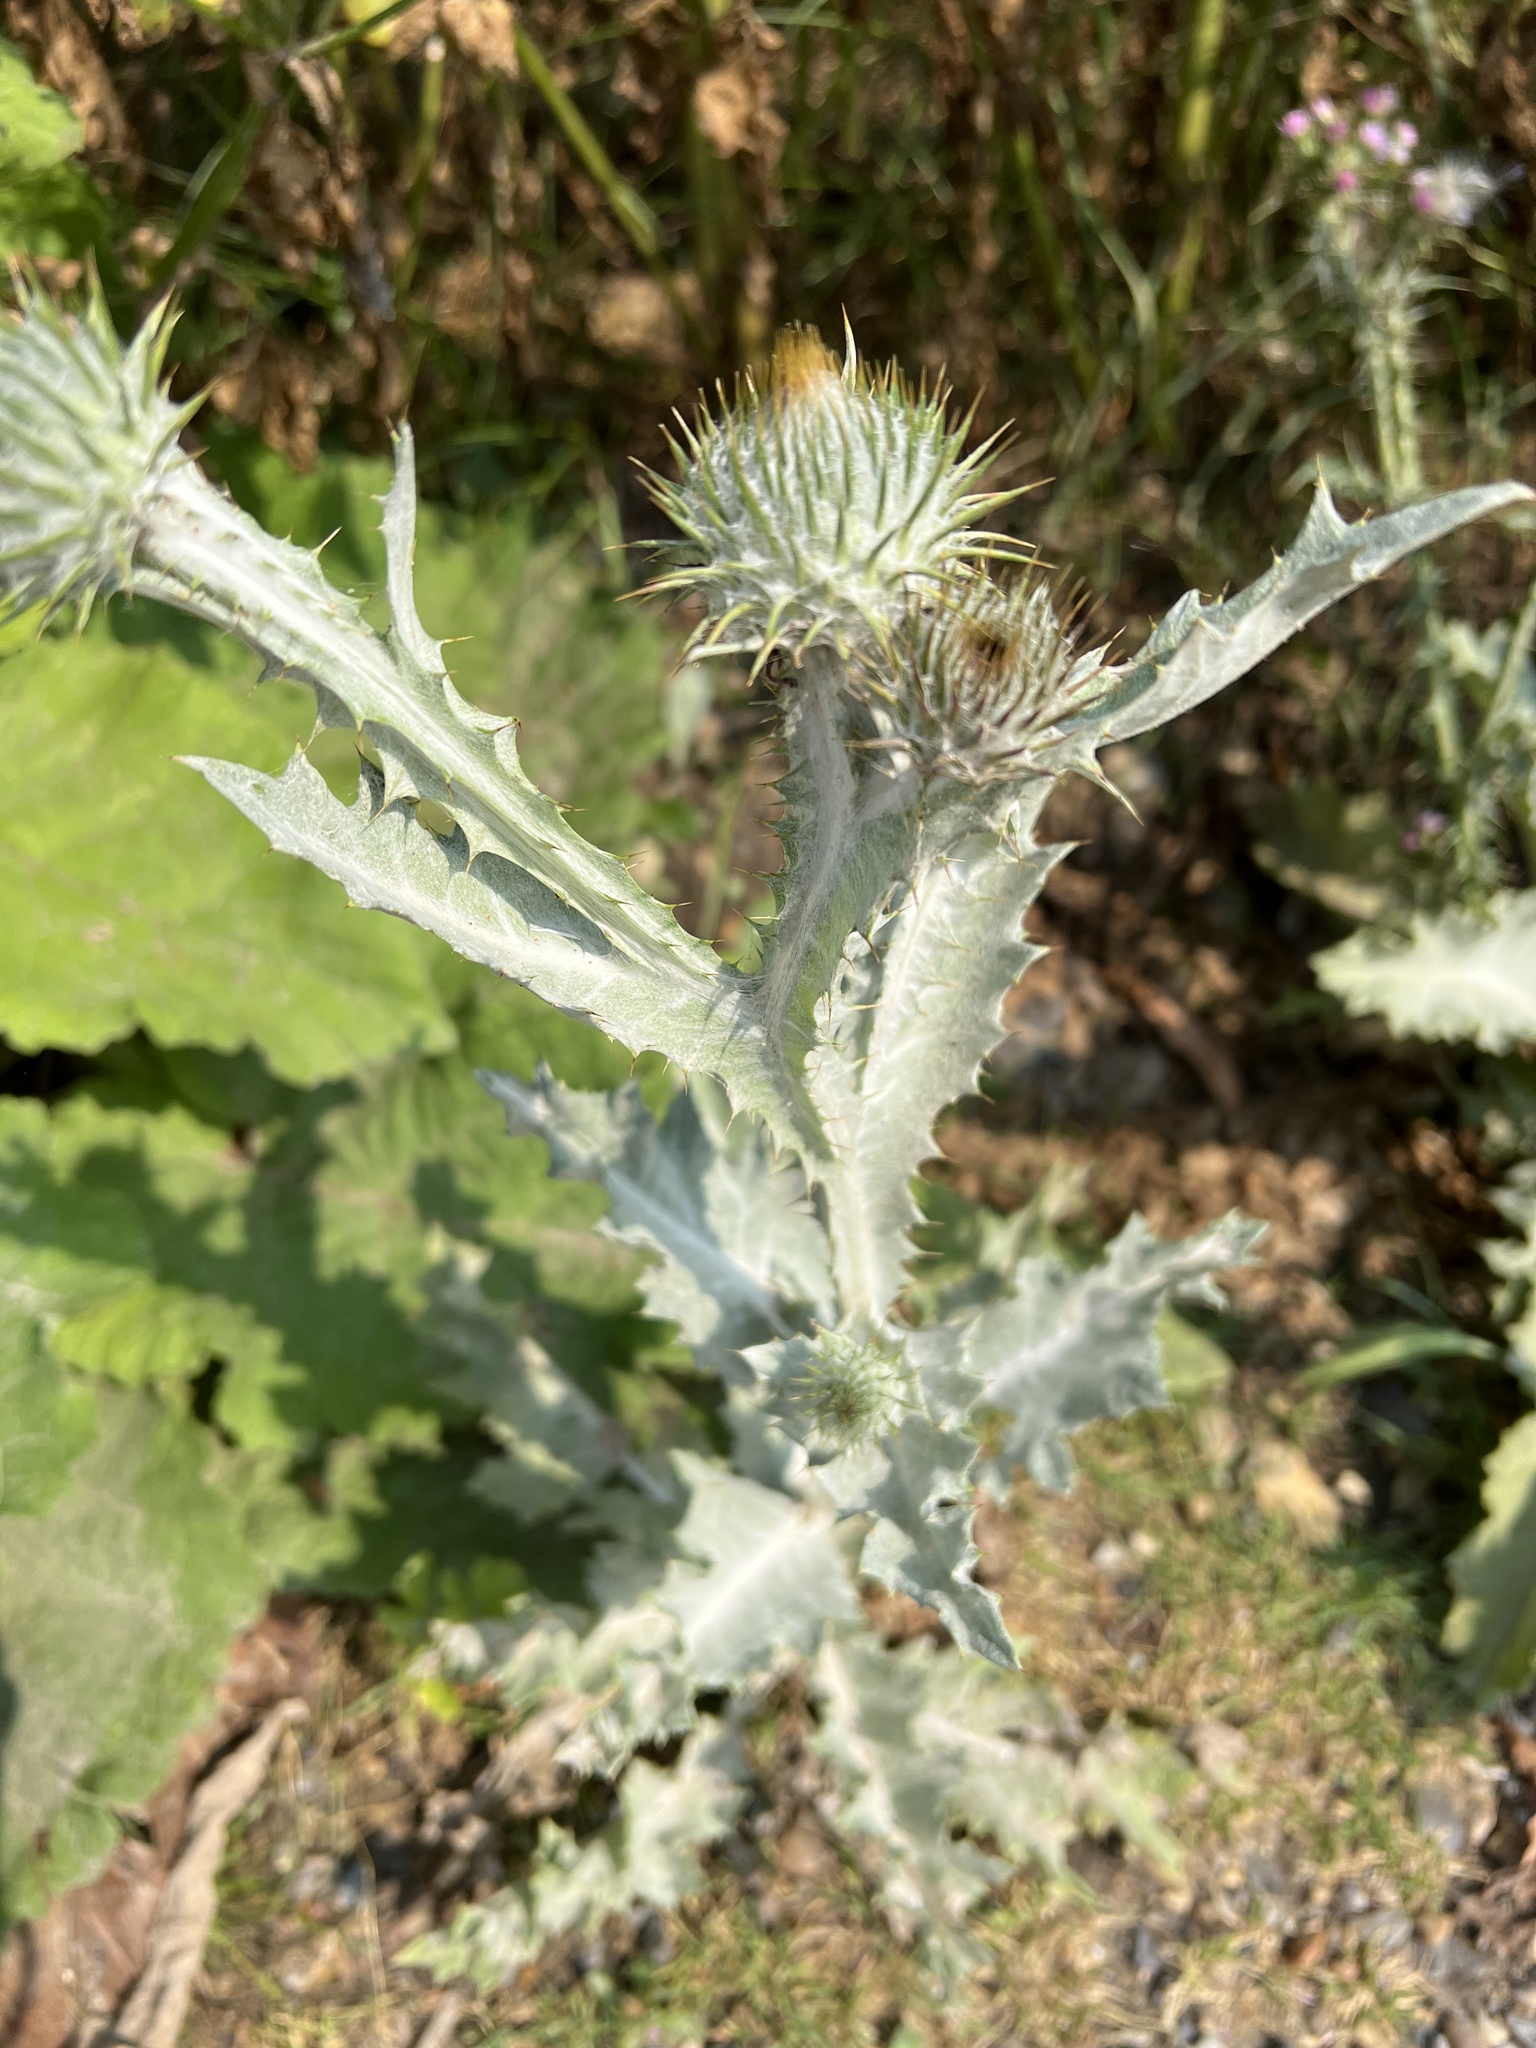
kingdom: Plantae
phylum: Tracheophyta
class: Magnoliopsida
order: Asterales
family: Asteraceae
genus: Onopordum
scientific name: Onopordum acanthium
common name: Scotch thistle
